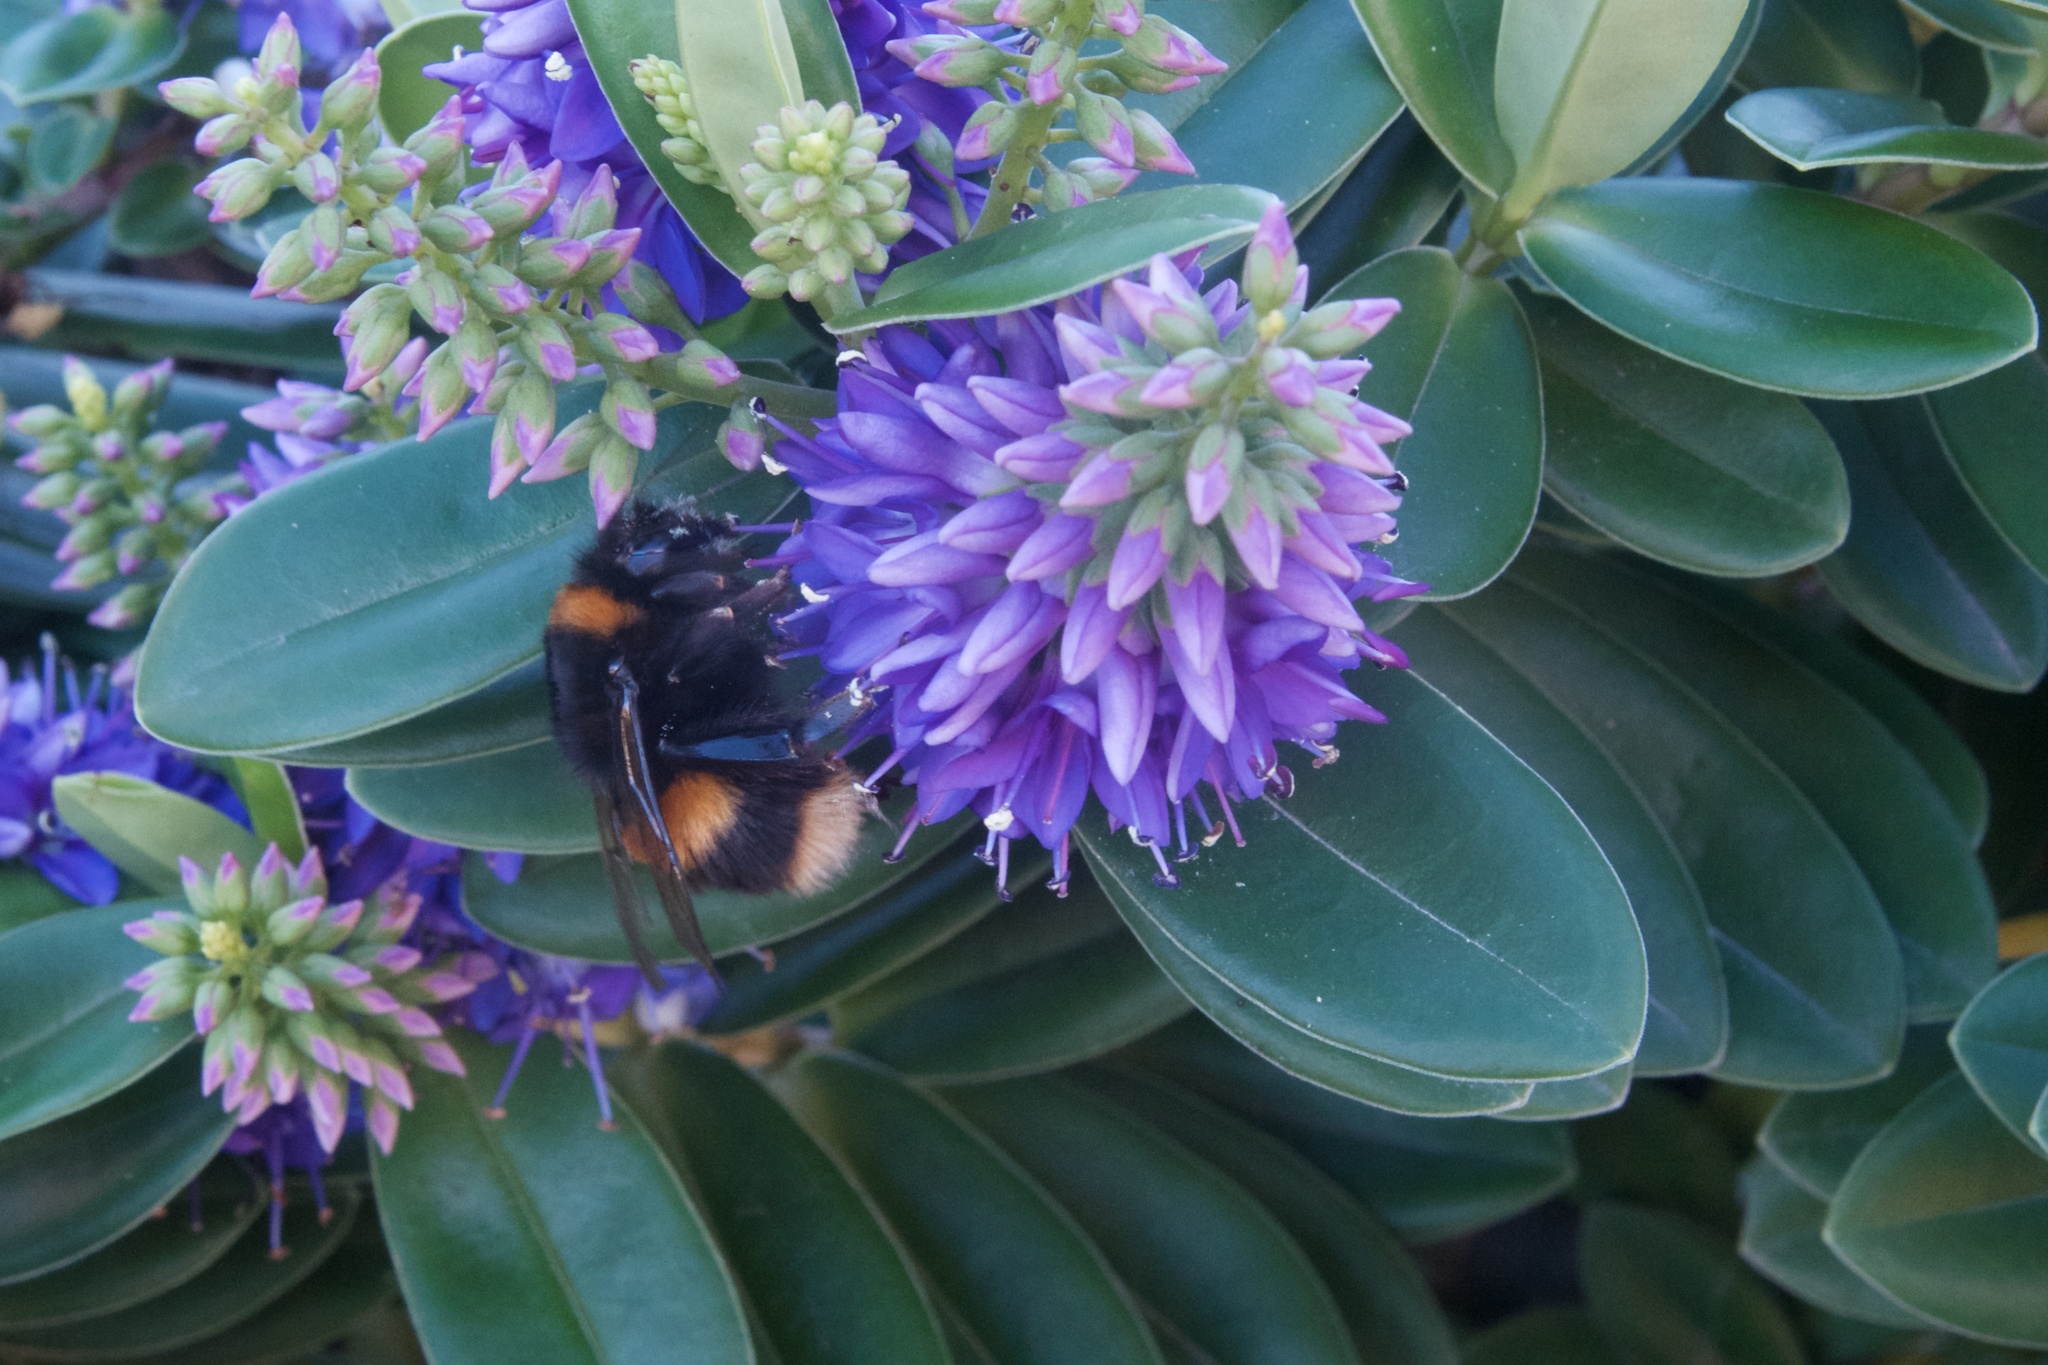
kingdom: Animalia
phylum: Arthropoda
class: Insecta
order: Hymenoptera
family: Apidae
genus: Bombus
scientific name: Bombus terrestris
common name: Buff-tailed bumblebee
